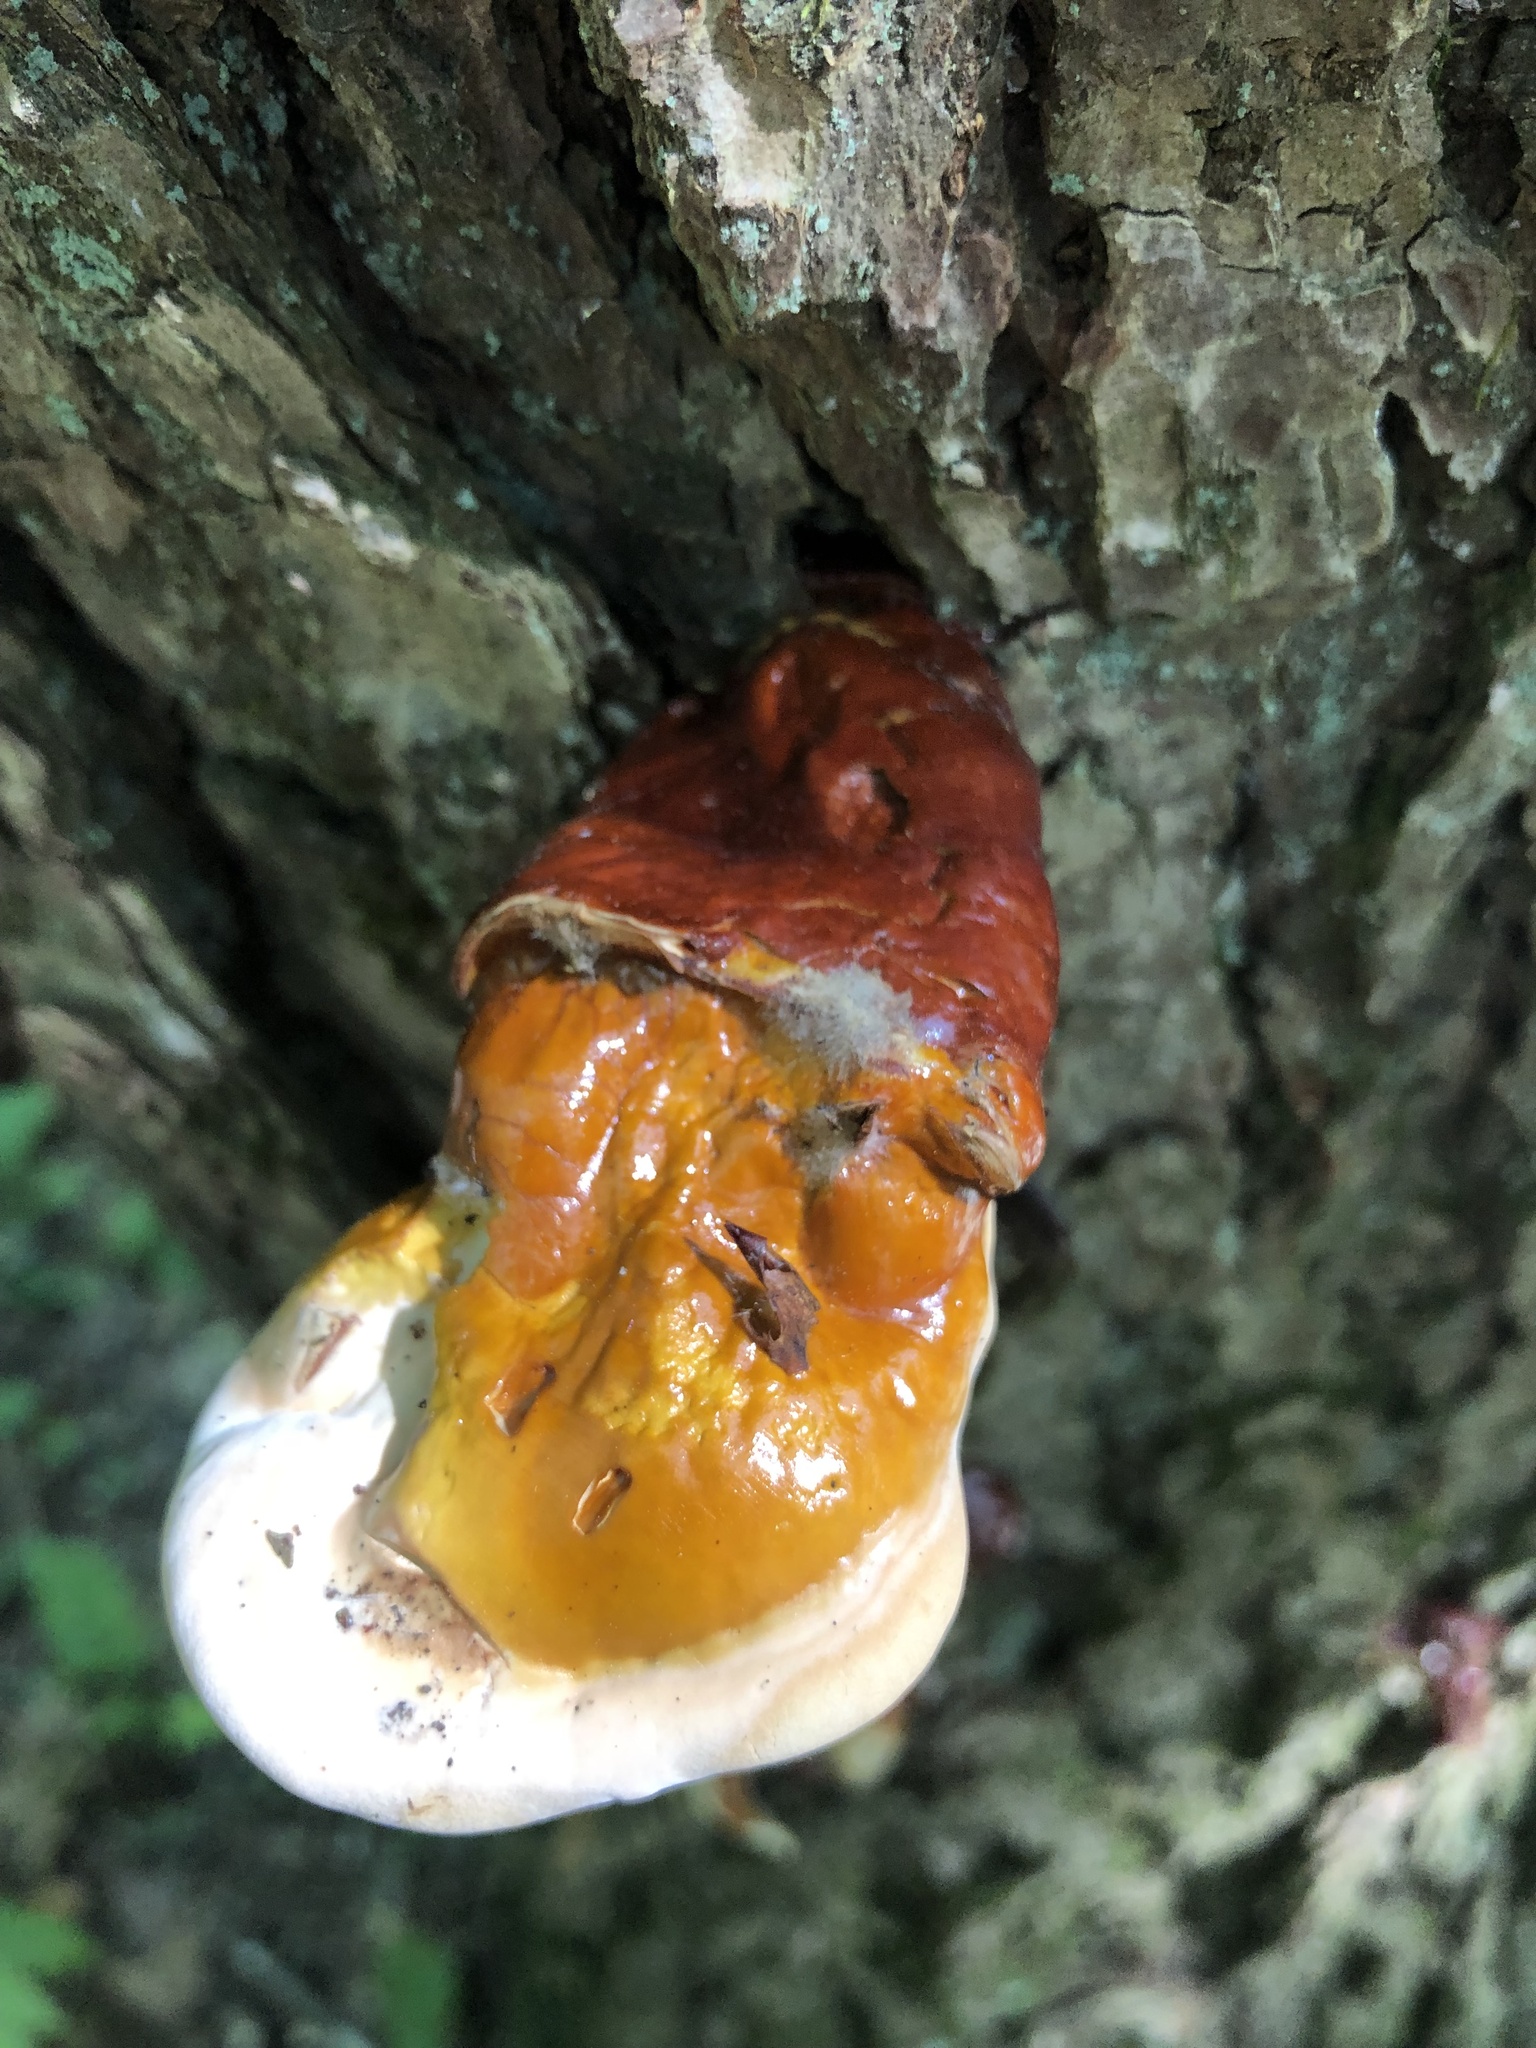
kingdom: Fungi
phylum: Basidiomycota
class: Agaricomycetes
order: Polyporales
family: Polyporaceae
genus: Ganoderma
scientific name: Ganoderma tsugae
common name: Hemlock varnish shelf
